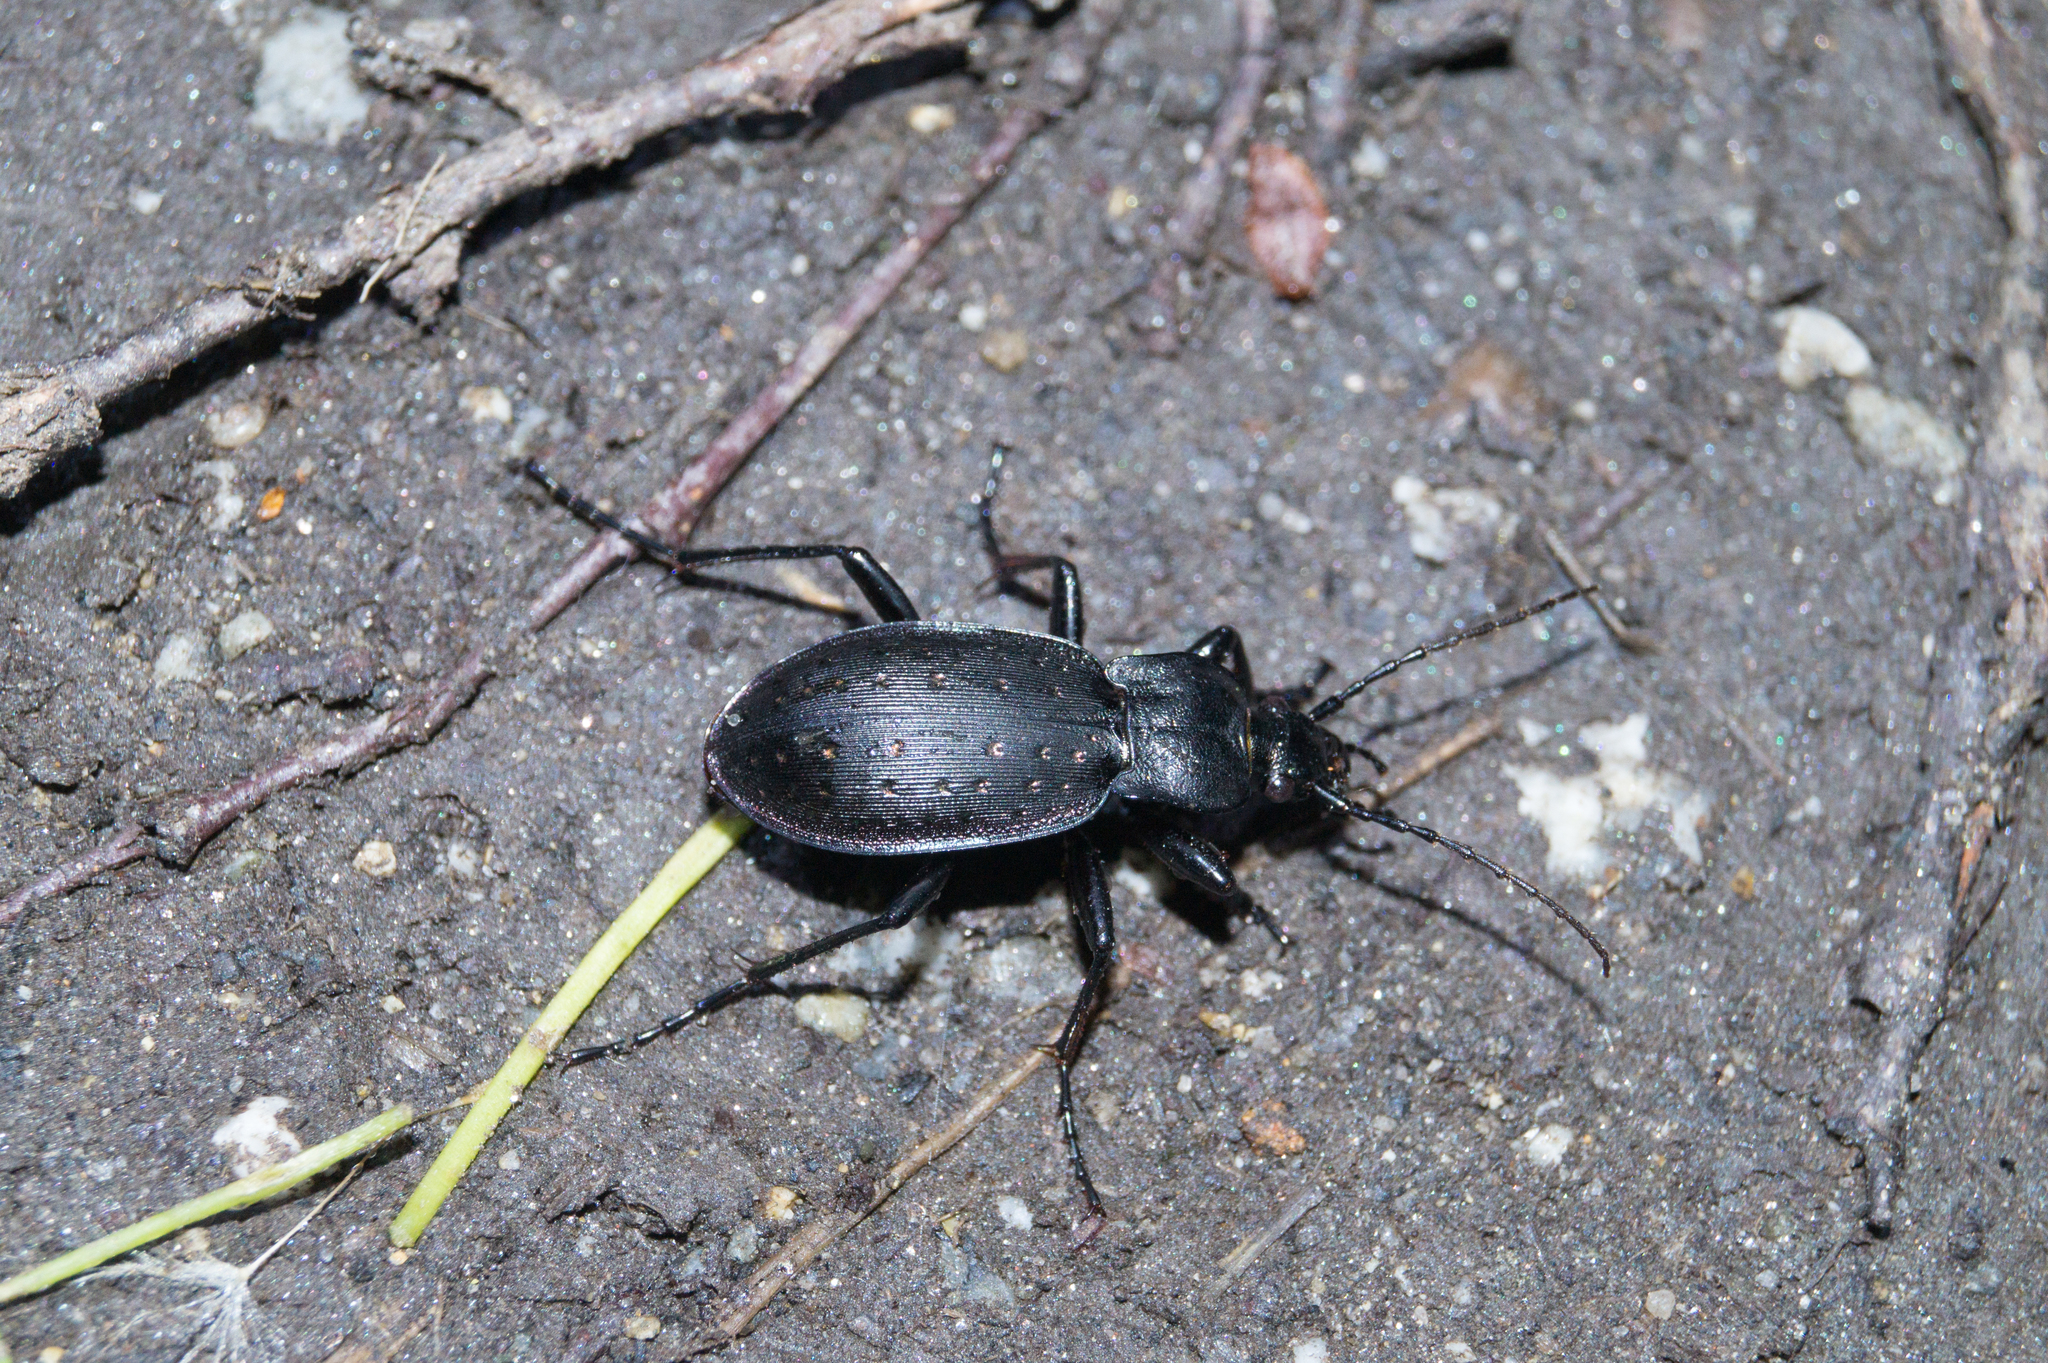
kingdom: Animalia
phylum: Arthropoda
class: Insecta
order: Coleoptera
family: Carabidae
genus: Carabus
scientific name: Carabus hortensis
